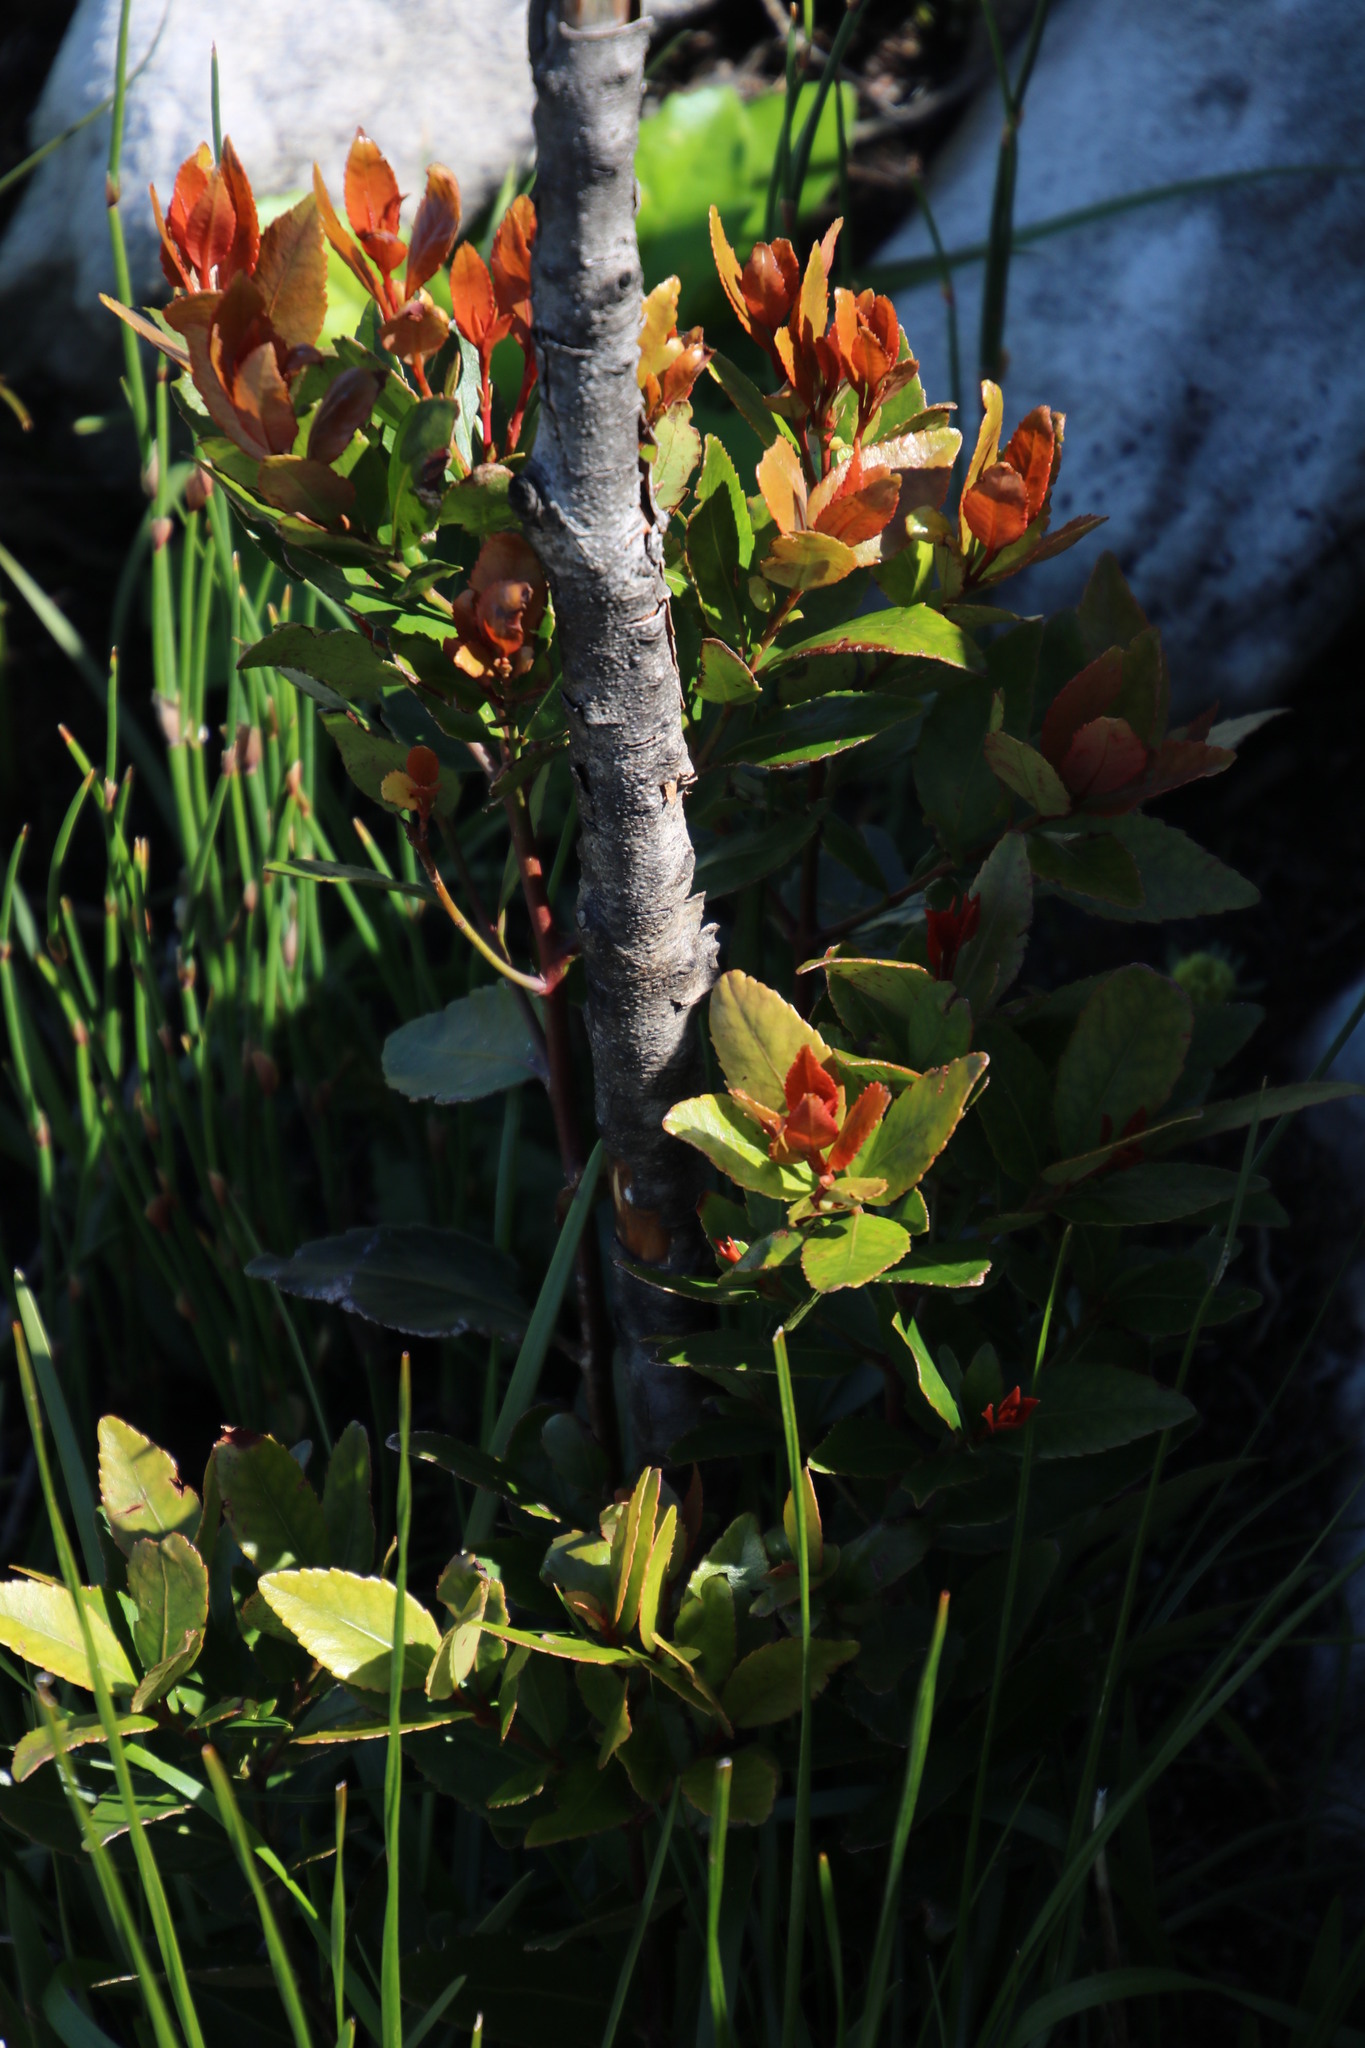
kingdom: Plantae
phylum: Tracheophyta
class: Magnoliopsida
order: Celastrales
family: Celastraceae
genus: Elaeodendron
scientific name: Elaeodendron schinoides
